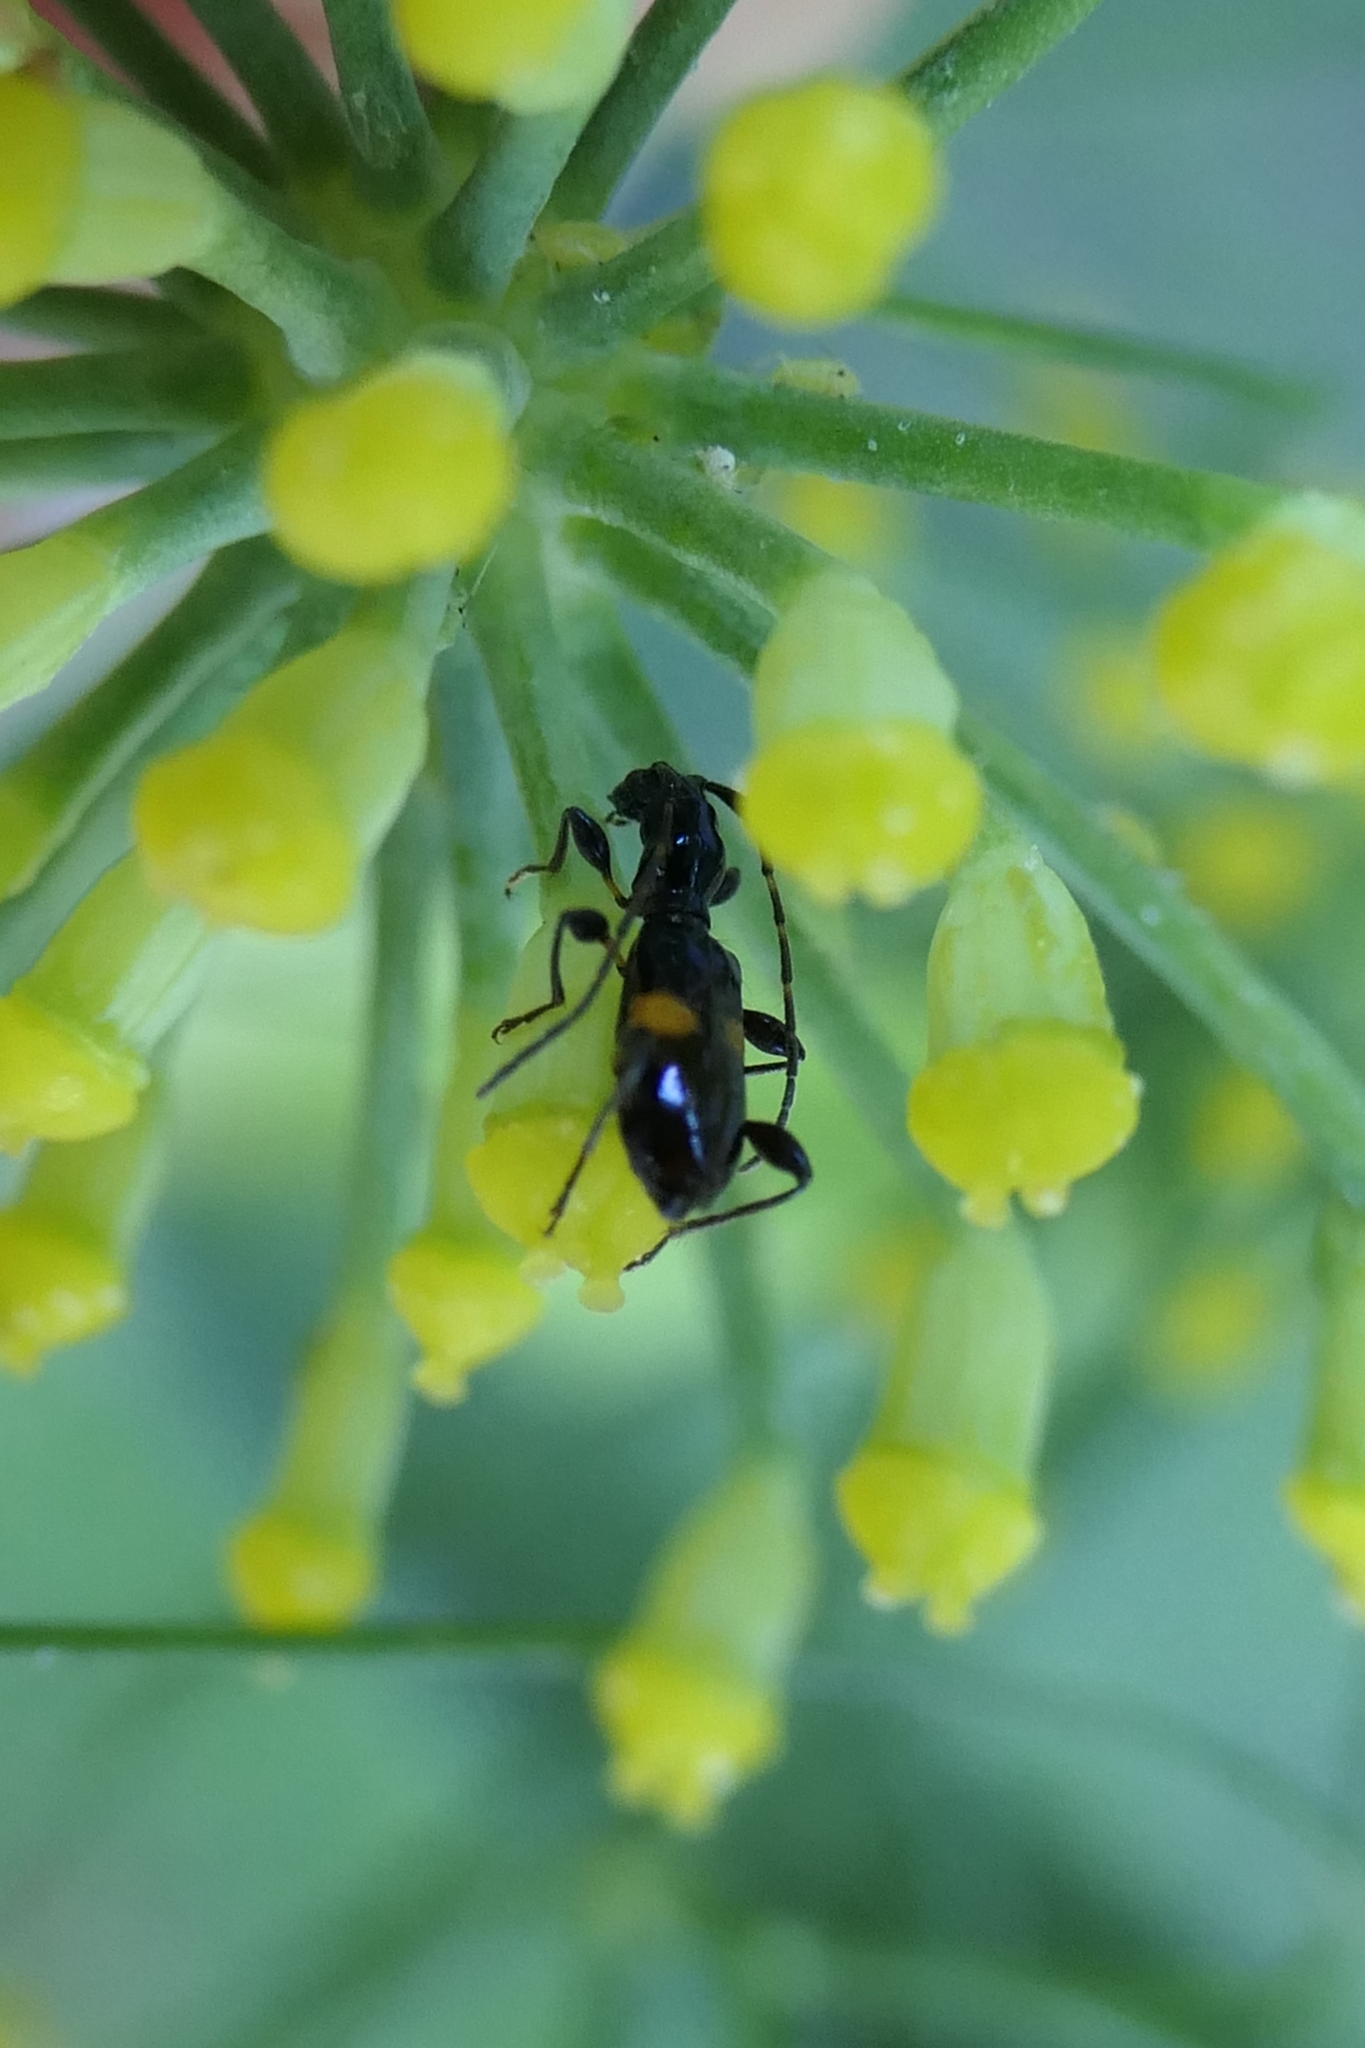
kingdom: Animalia
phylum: Arthropoda
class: Insecta
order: Coleoptera
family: Cerambycidae
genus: Zorion
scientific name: Zorion guttigerum
